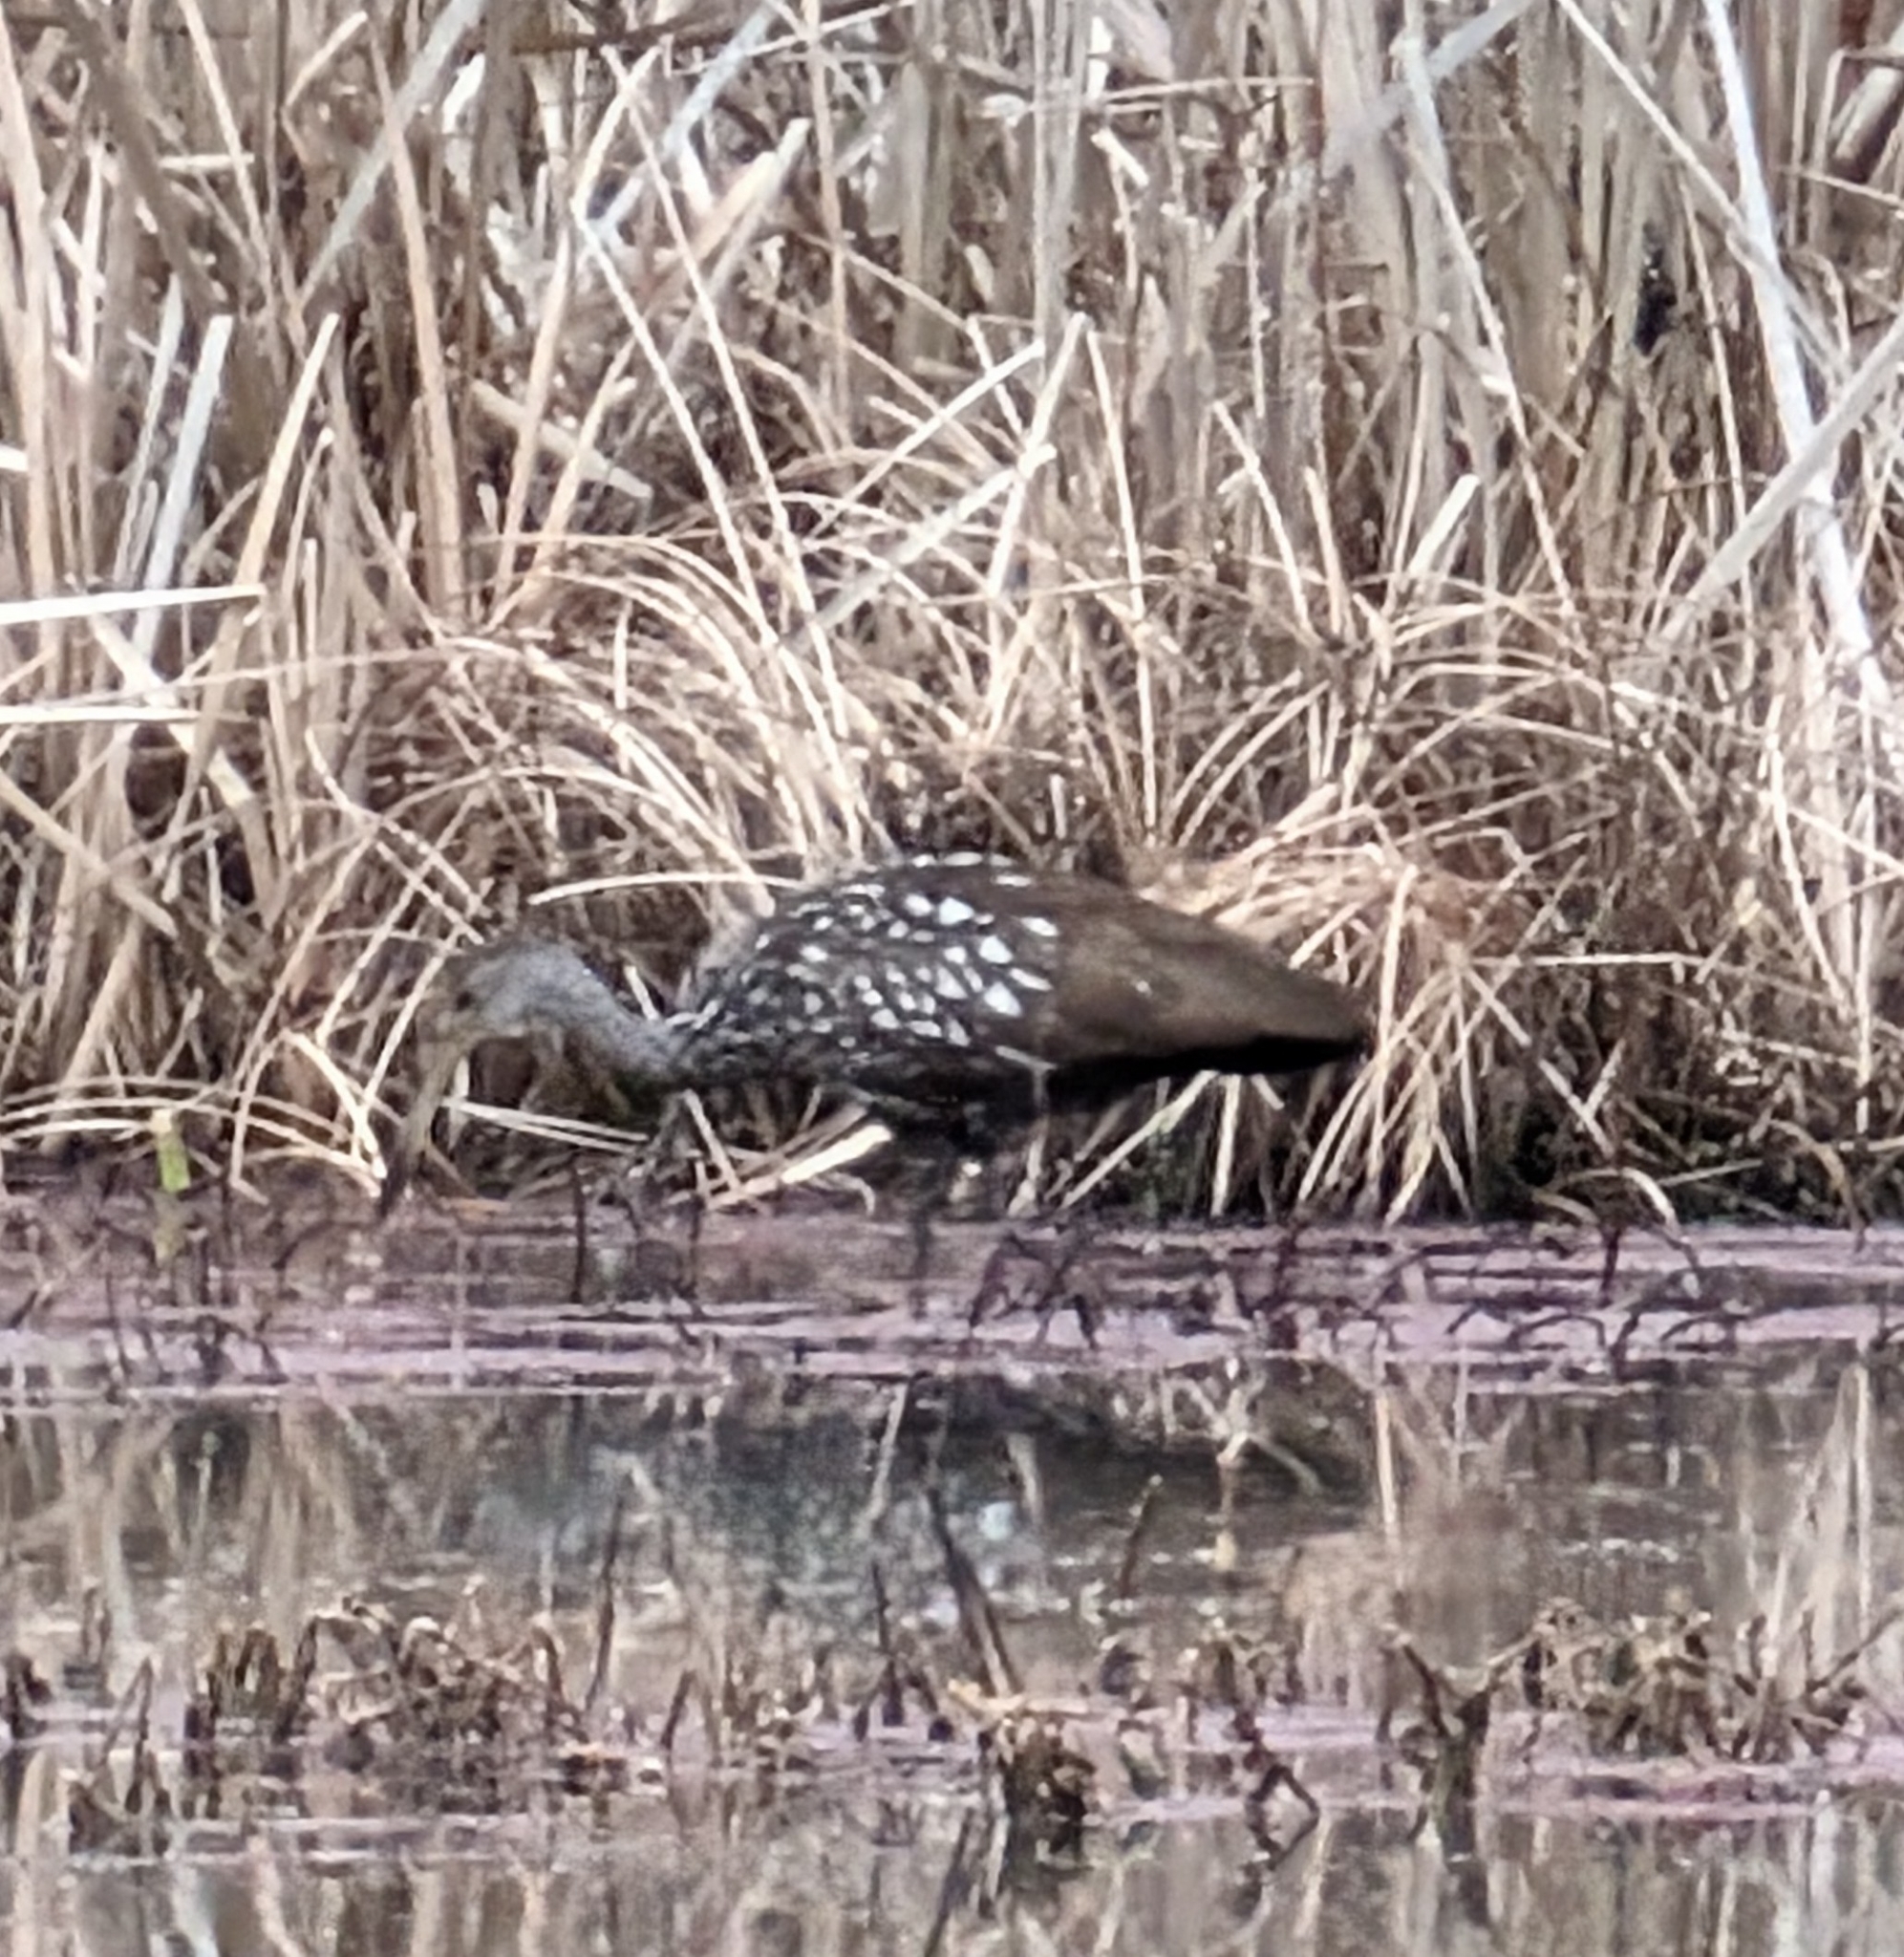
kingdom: Animalia
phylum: Chordata
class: Aves
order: Gruiformes
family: Aramidae
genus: Aramus
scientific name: Aramus guarauna
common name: Limpkin
